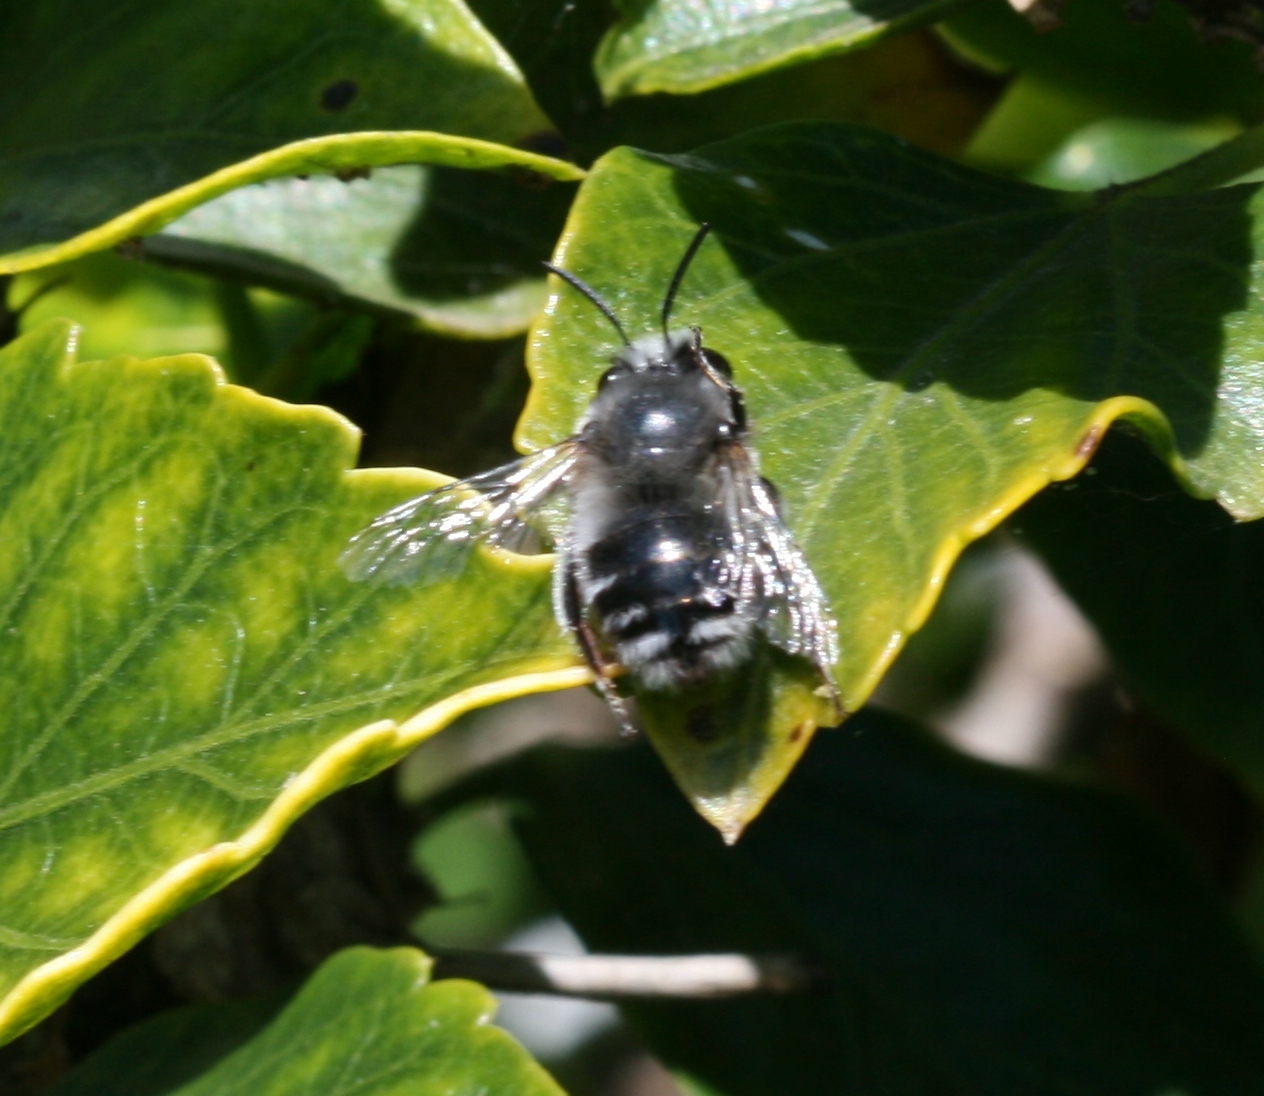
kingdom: Animalia
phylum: Arthropoda
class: Insecta
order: Hymenoptera
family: Apidae
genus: Anthophora
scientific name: Anthophora alluaudi
